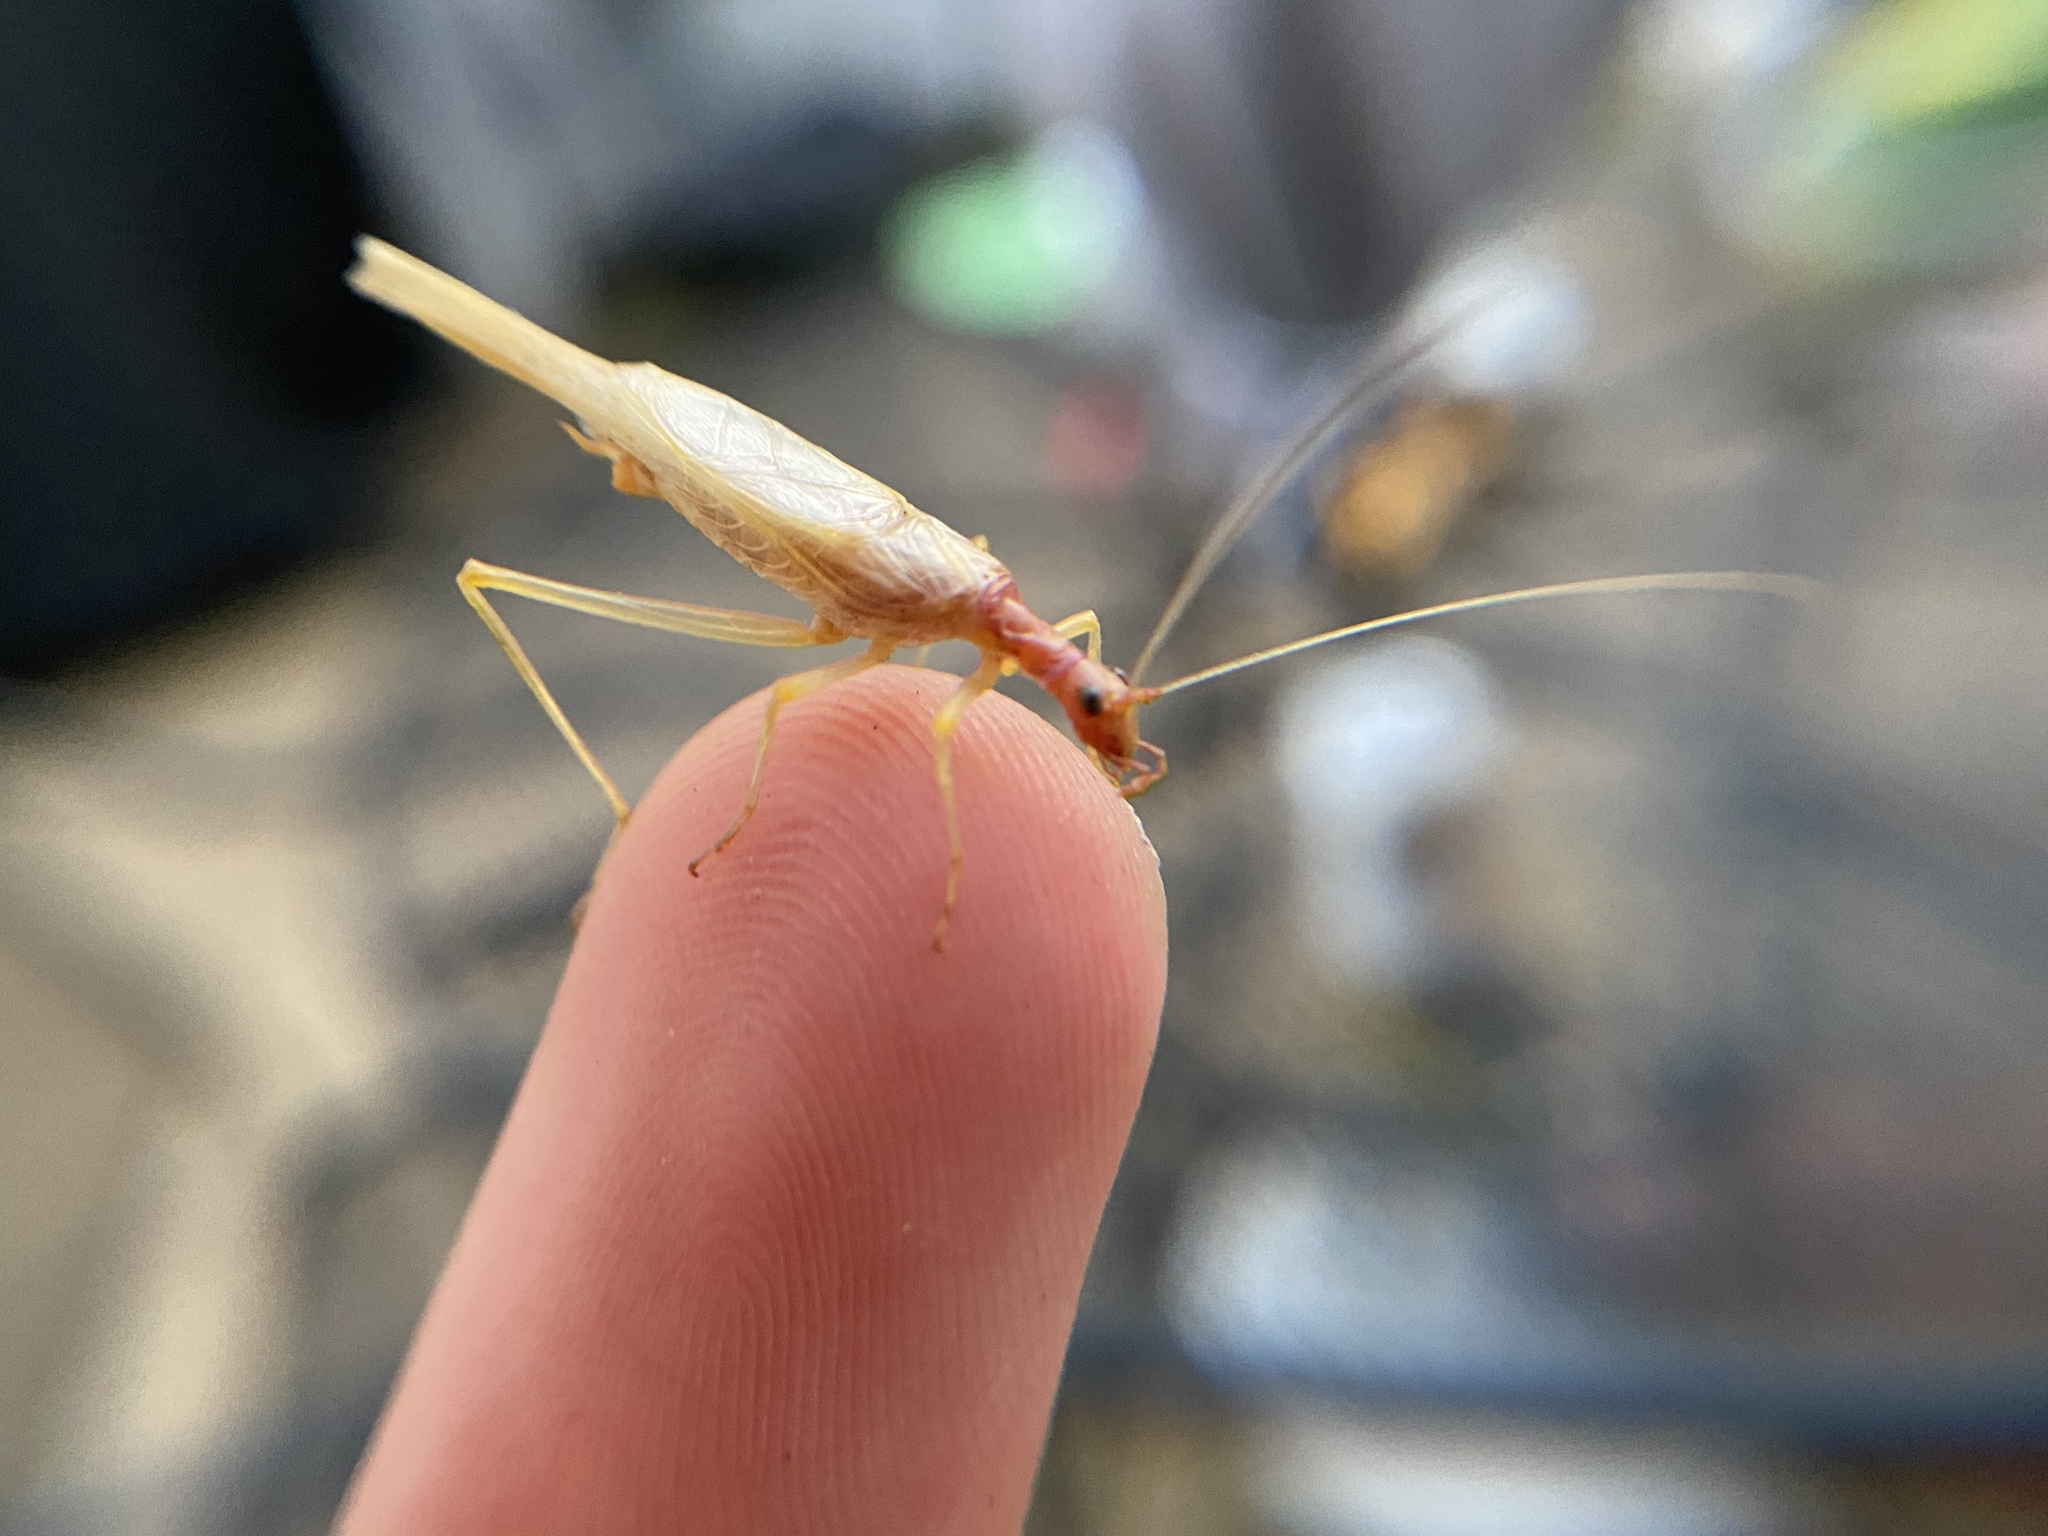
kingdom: Animalia
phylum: Arthropoda
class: Insecta
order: Orthoptera
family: Gryllidae
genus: Neoxabea
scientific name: Neoxabea bipunctata
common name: Two-spotted tree cricket
